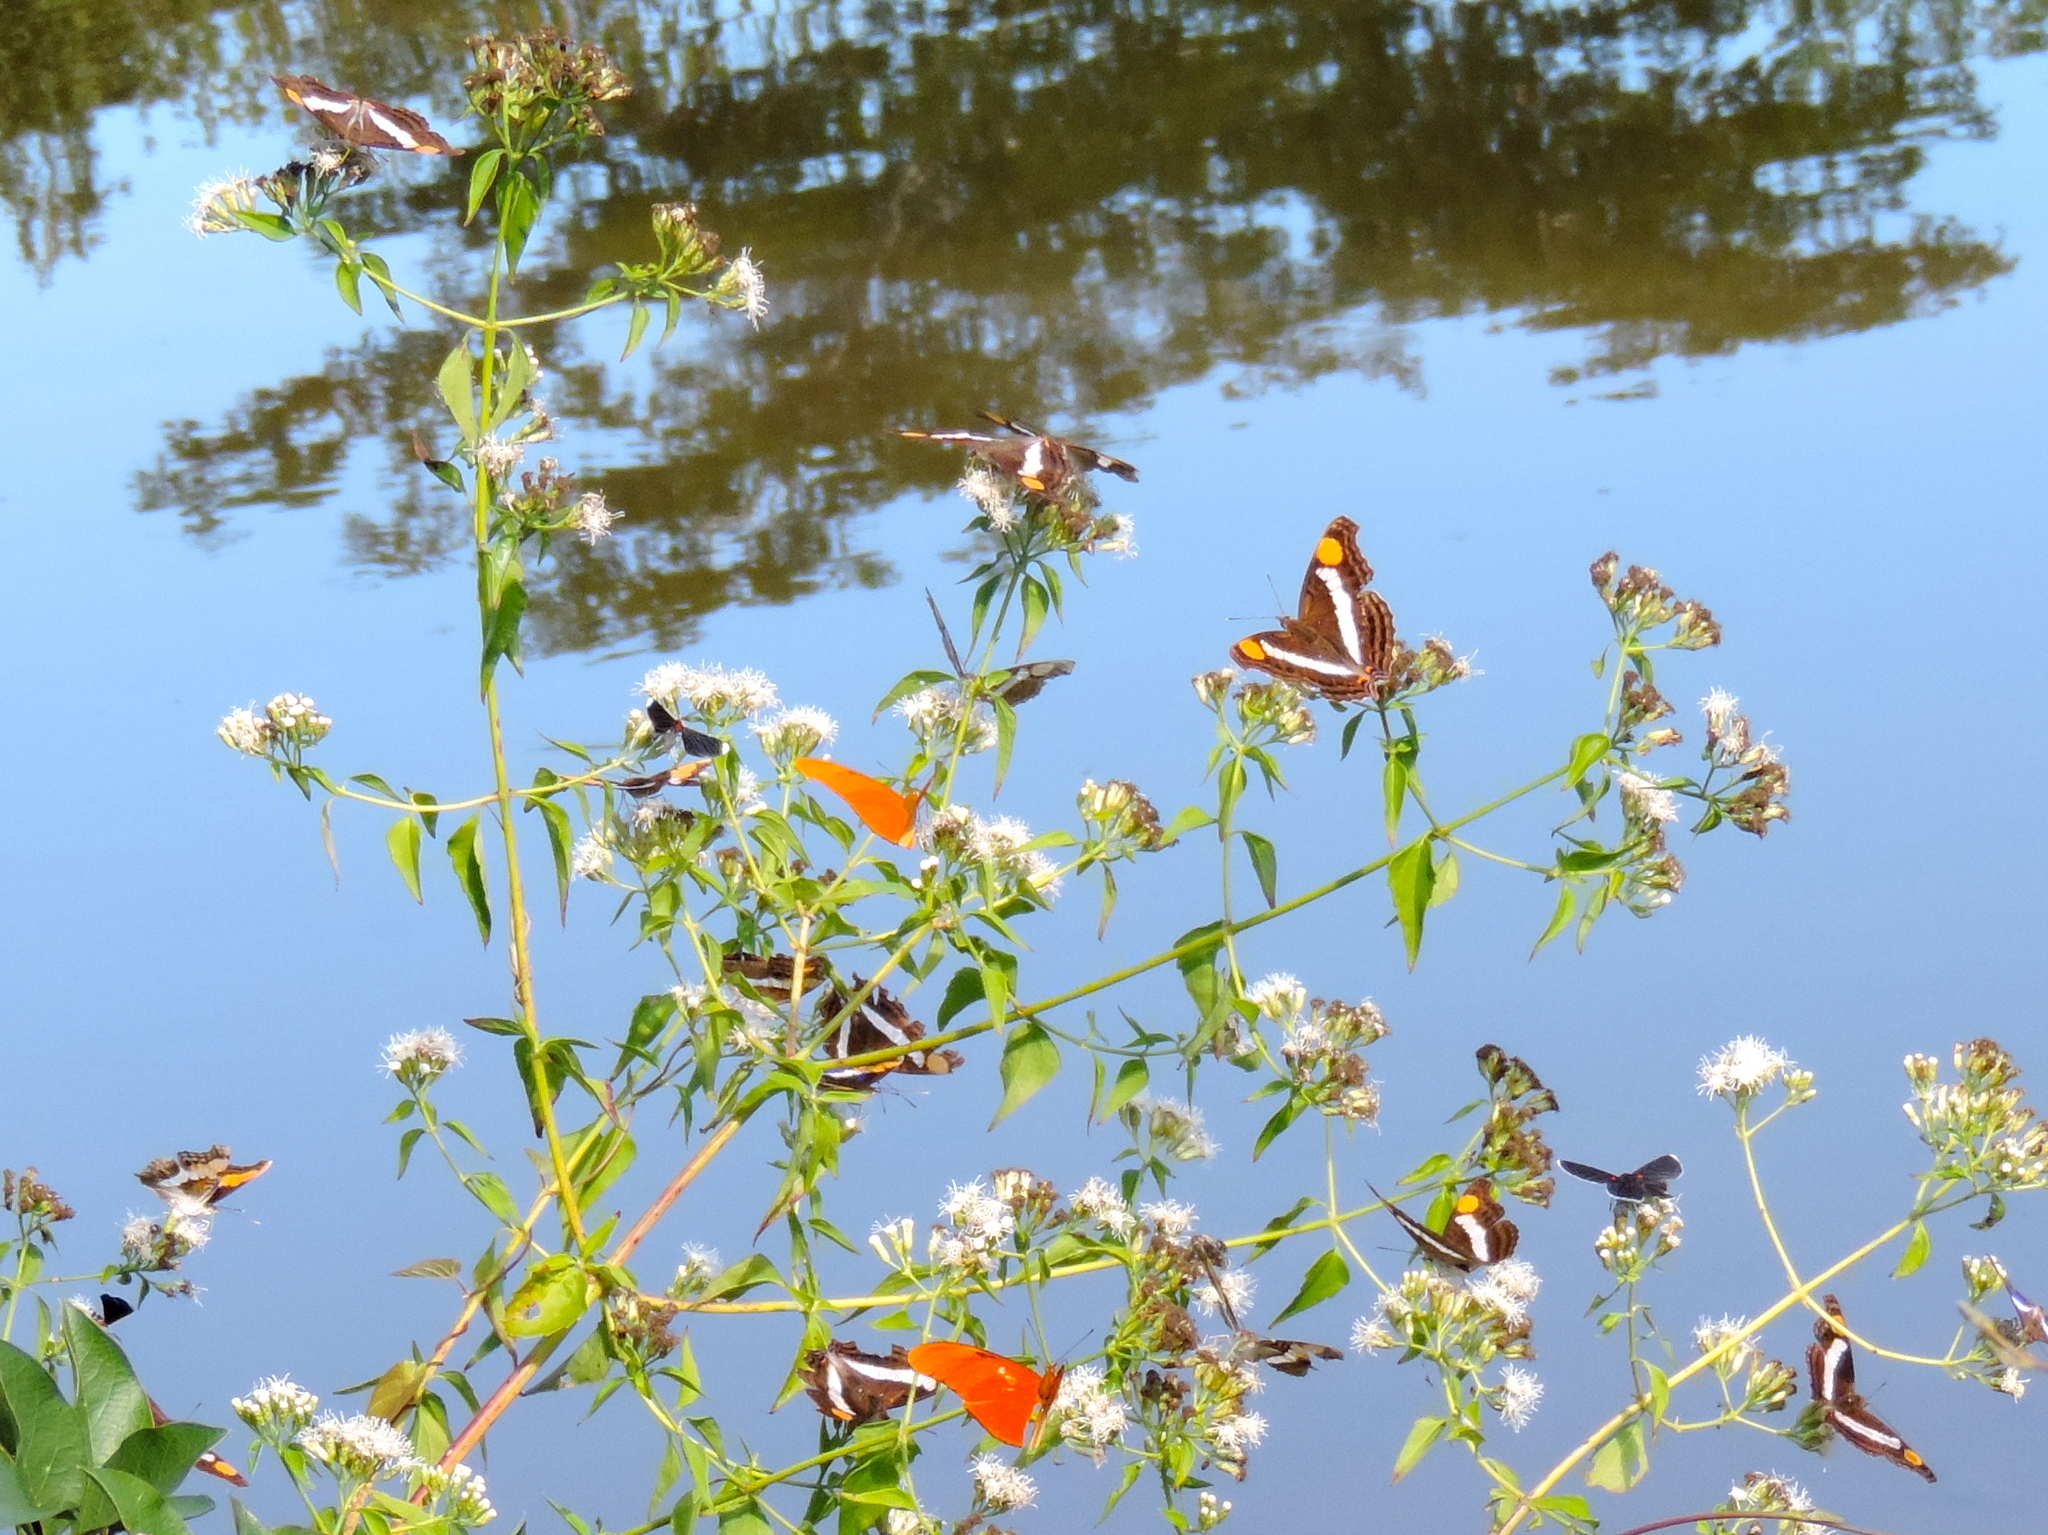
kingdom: Animalia
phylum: Arthropoda
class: Insecta
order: Lepidoptera
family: Nymphalidae
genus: Doxocopa
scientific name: Doxocopa laure
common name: Silver emperor
